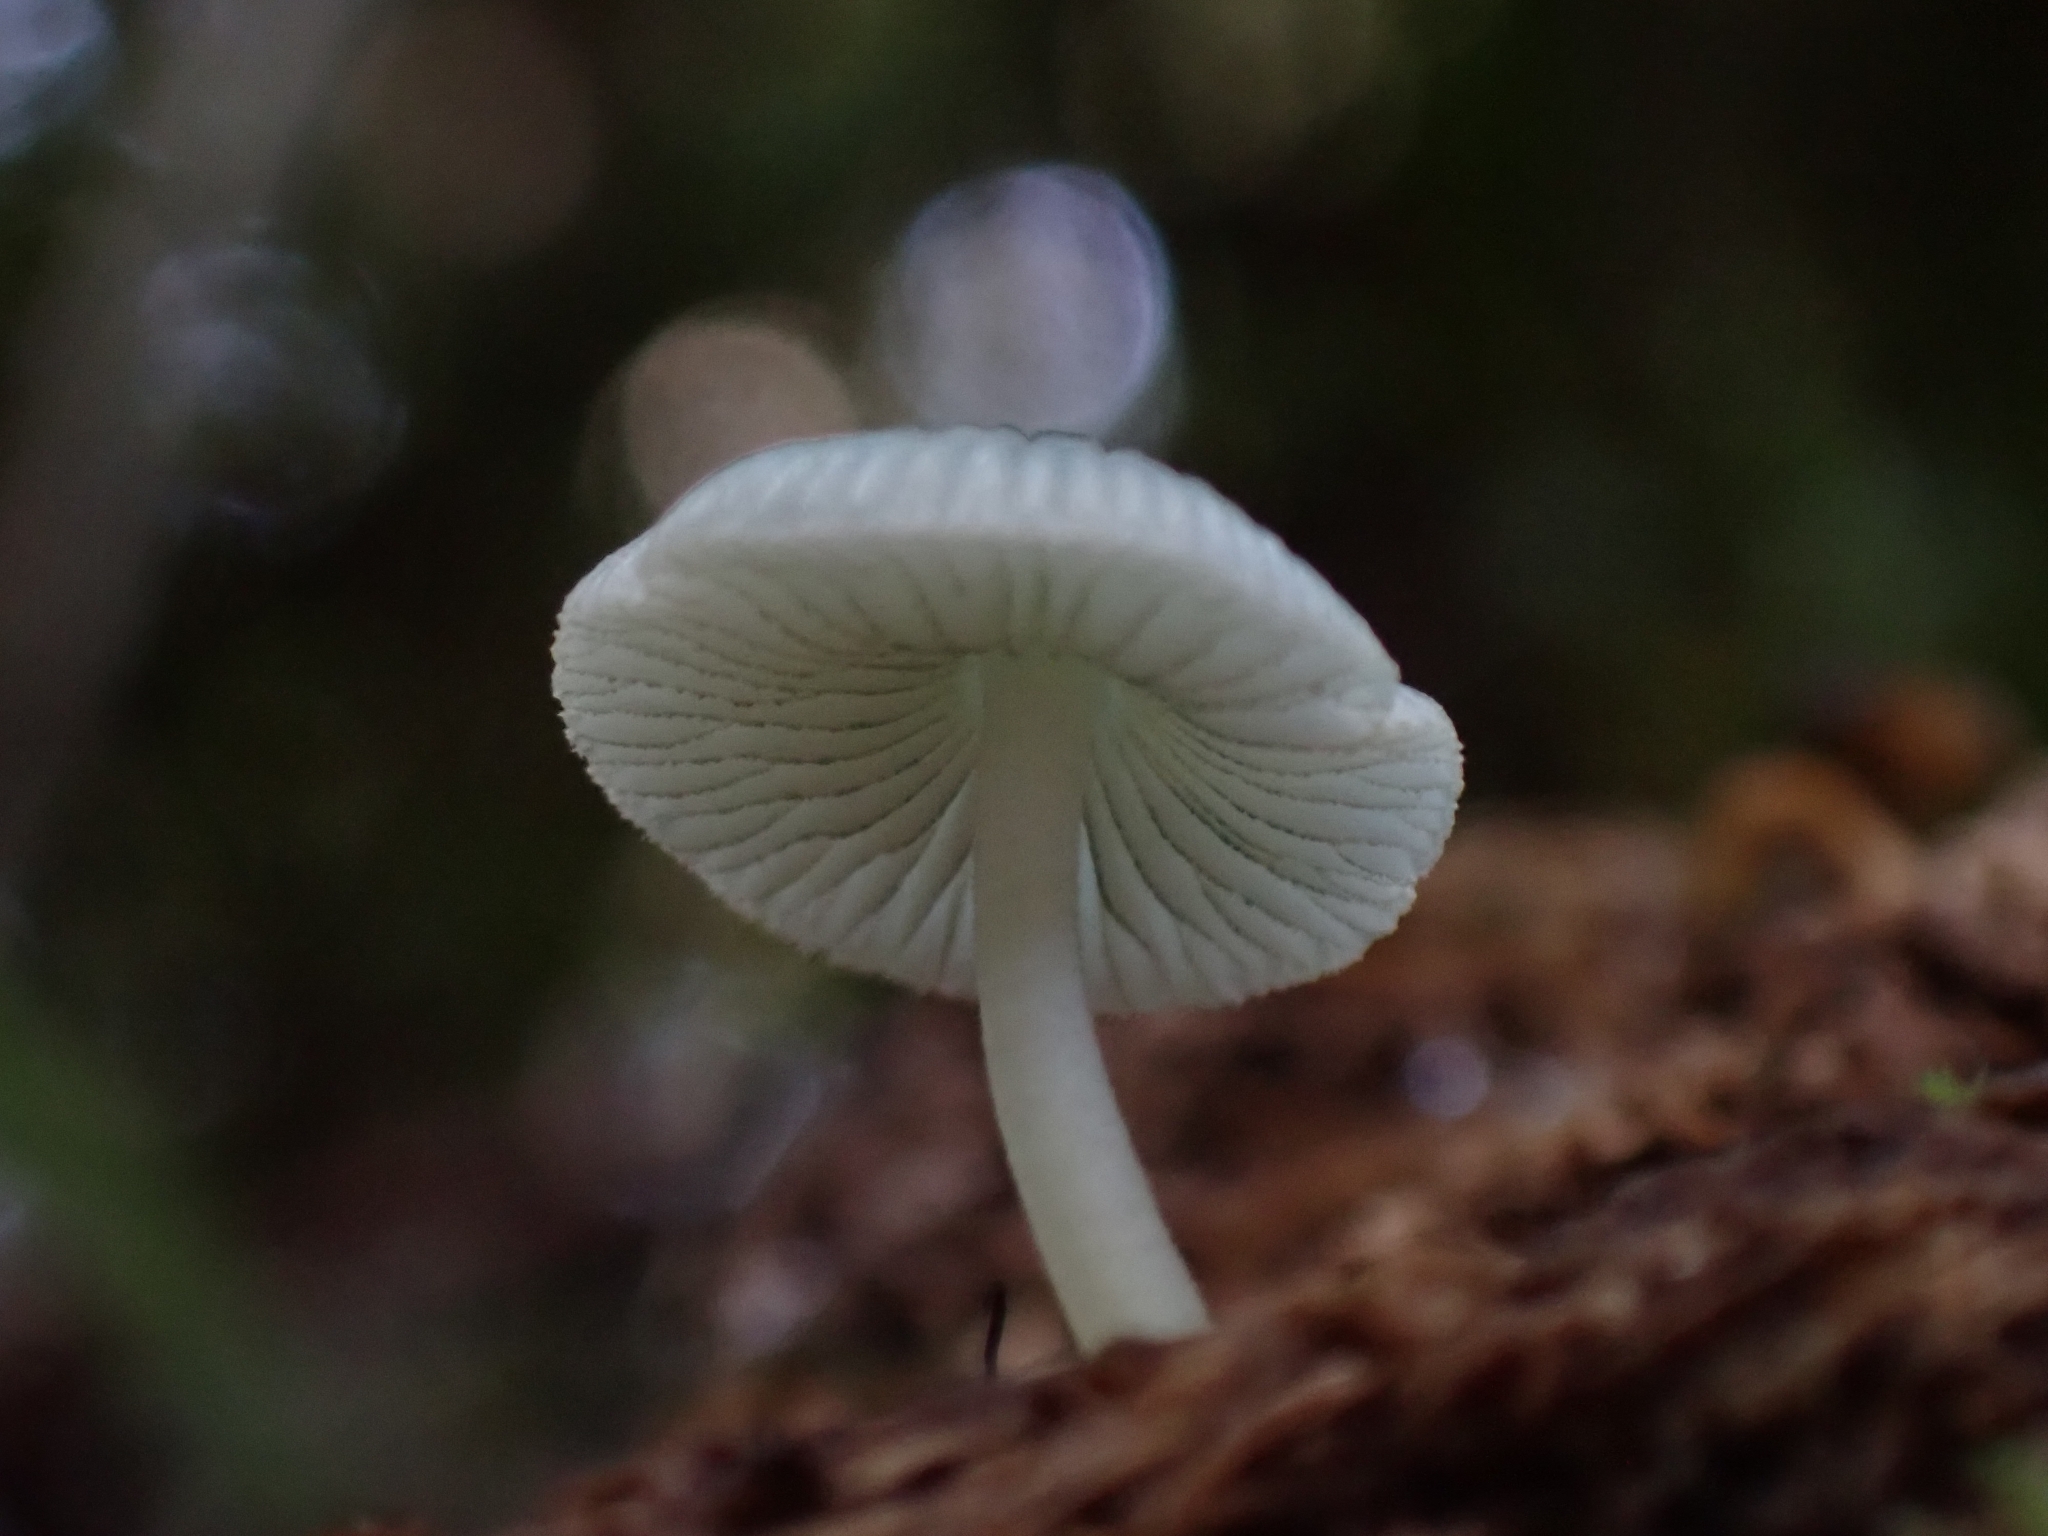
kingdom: Fungi
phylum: Basidiomycota
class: Agaricomycetes
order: Agaricales
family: Mycenaceae
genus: Mycena
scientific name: Mycena interrupta
